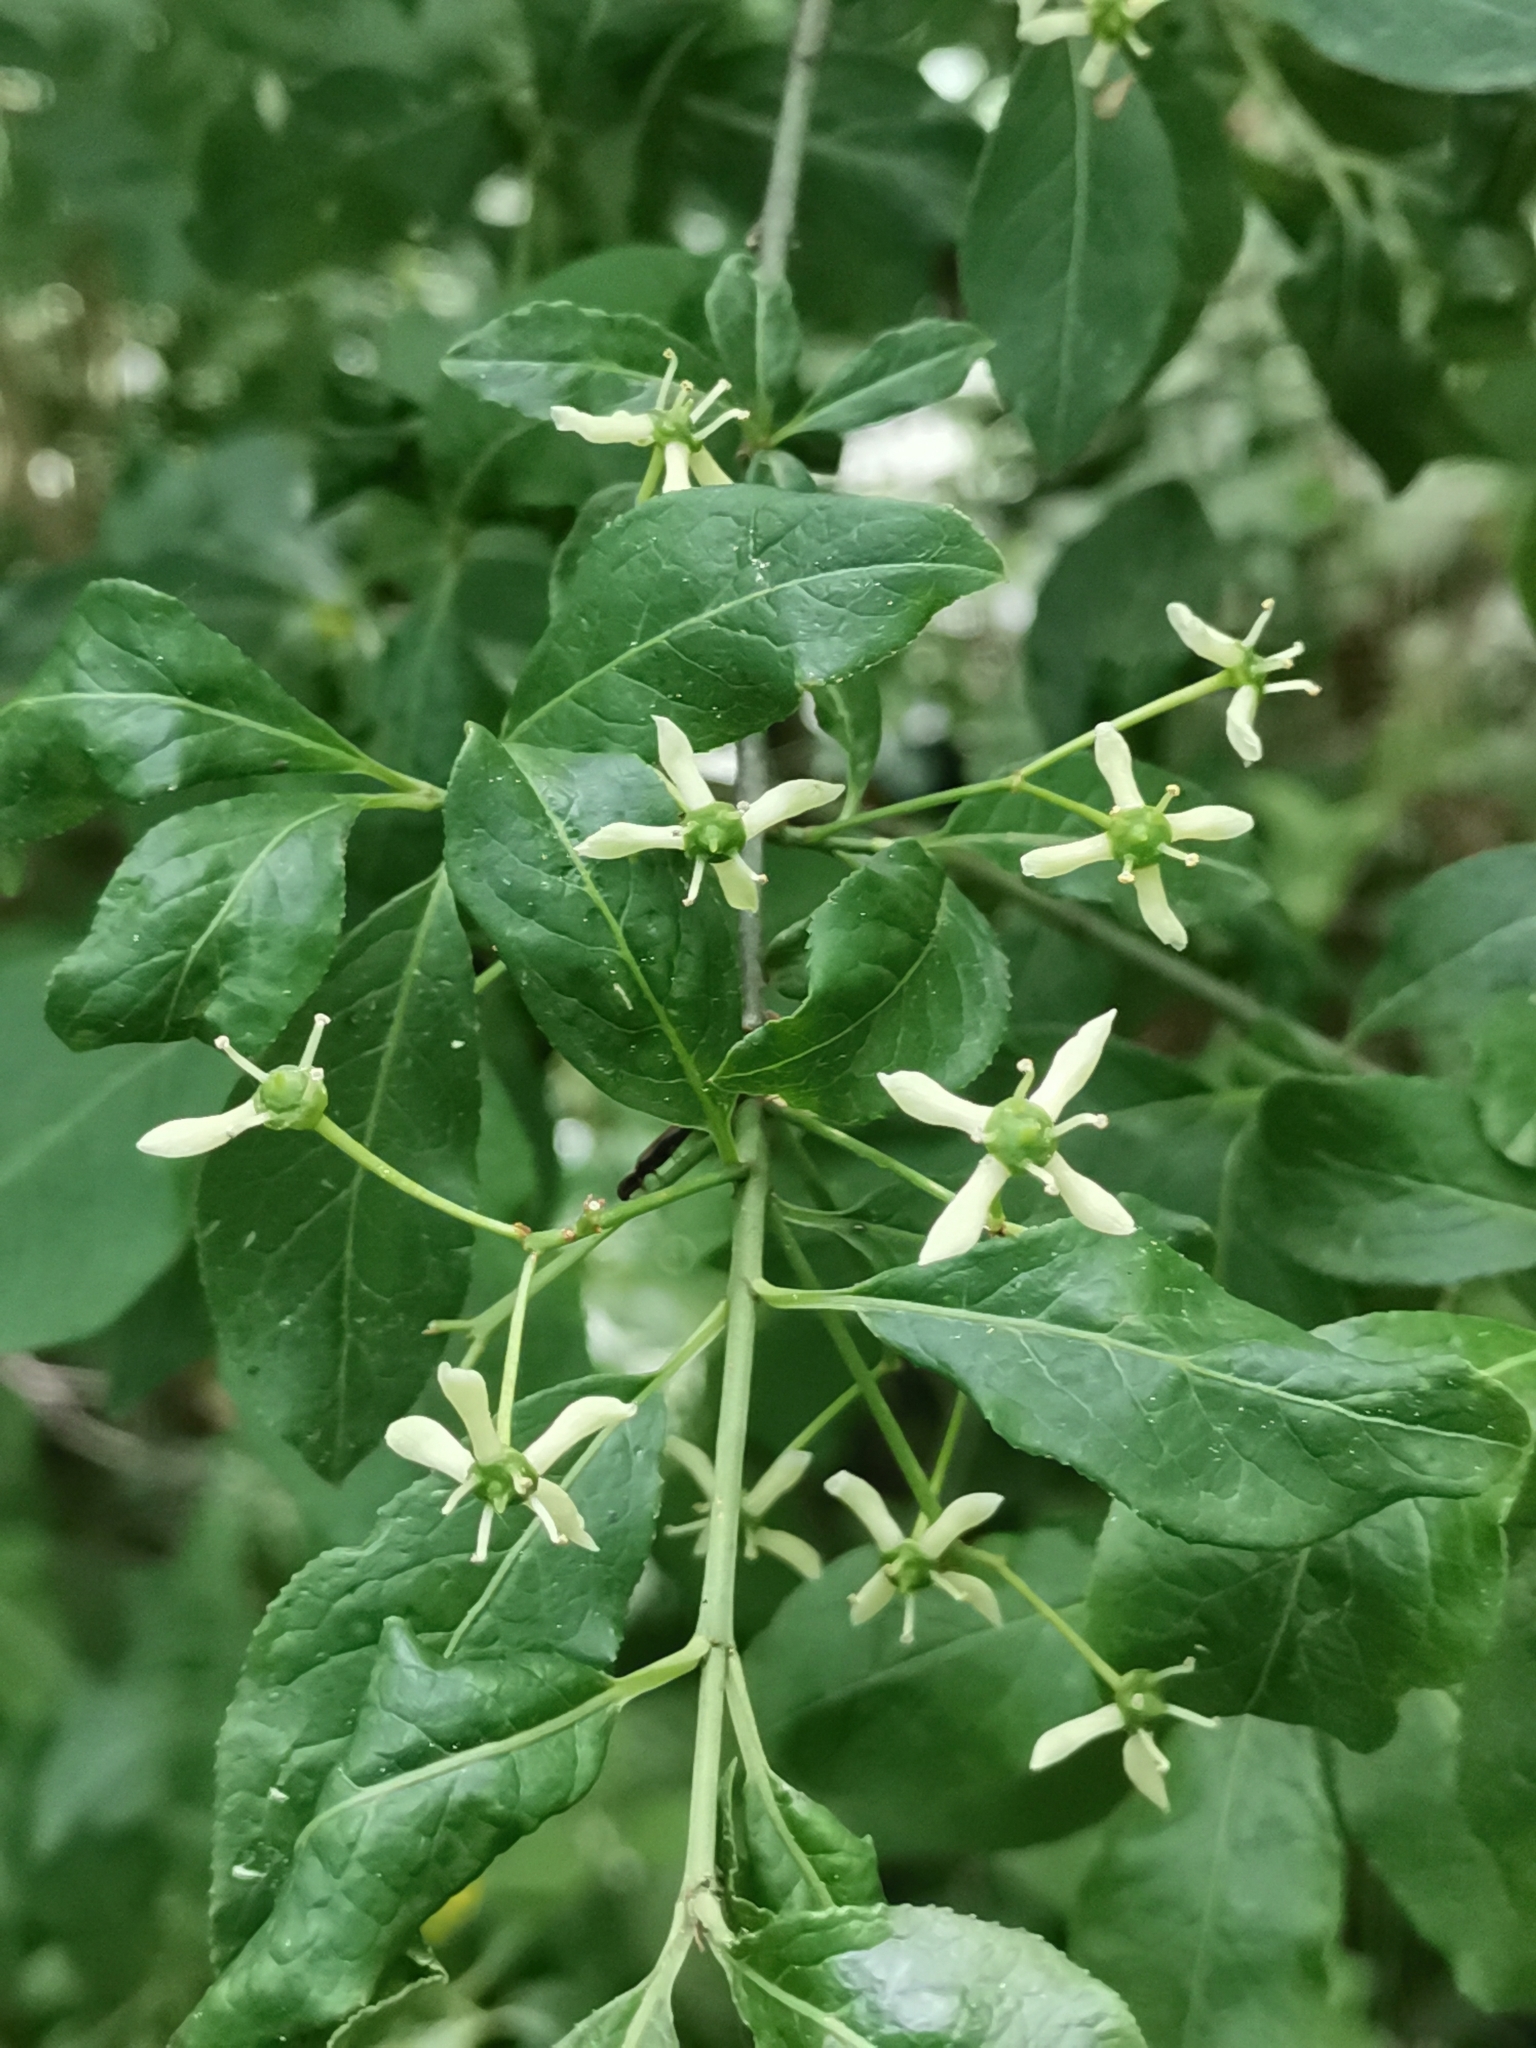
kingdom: Plantae
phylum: Tracheophyta
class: Magnoliopsida
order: Celastrales
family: Celastraceae
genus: Euonymus
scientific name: Euonymus europaeus
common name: Spindle
